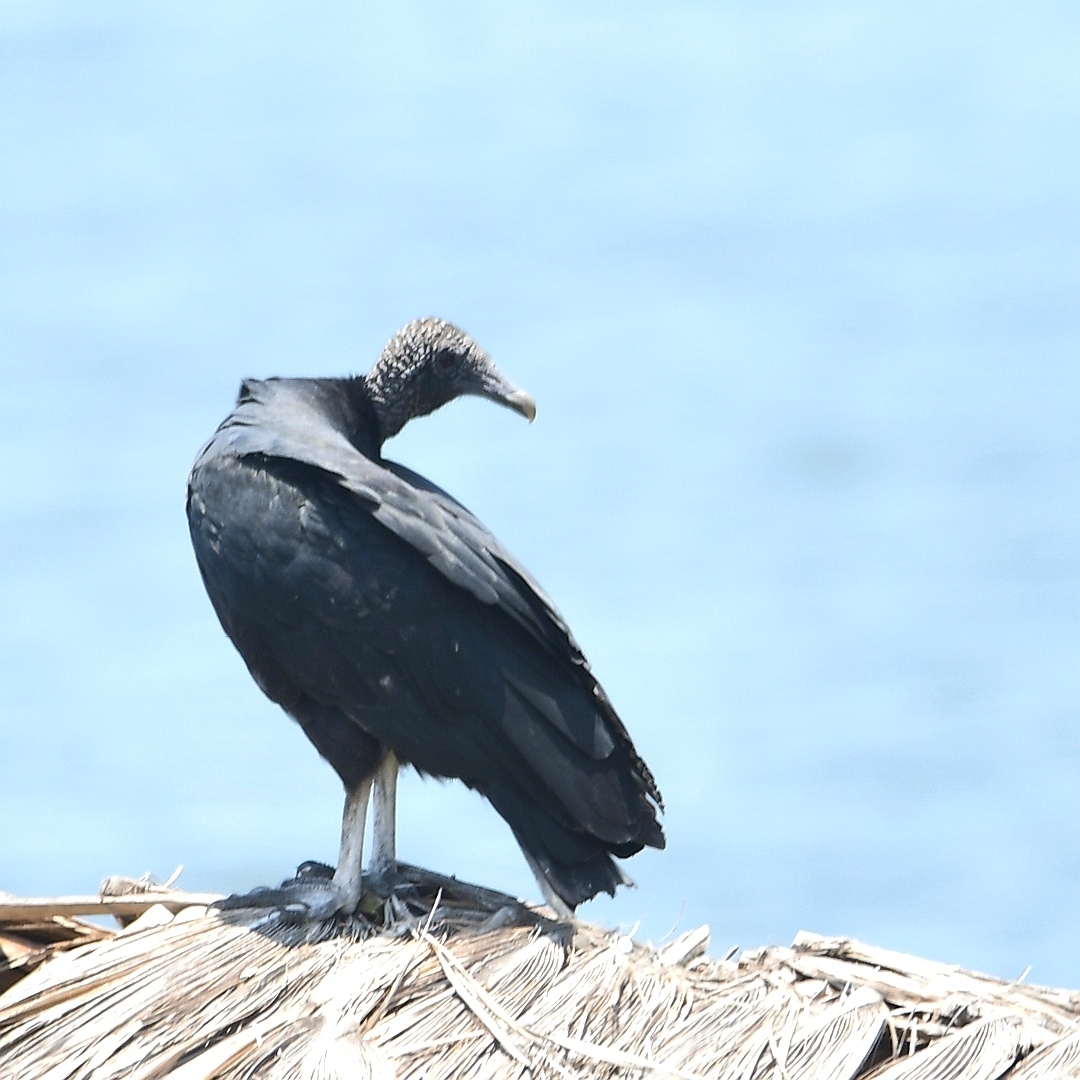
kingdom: Animalia
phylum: Chordata
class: Aves
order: Accipitriformes
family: Cathartidae
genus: Coragyps
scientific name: Coragyps atratus
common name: Black vulture
